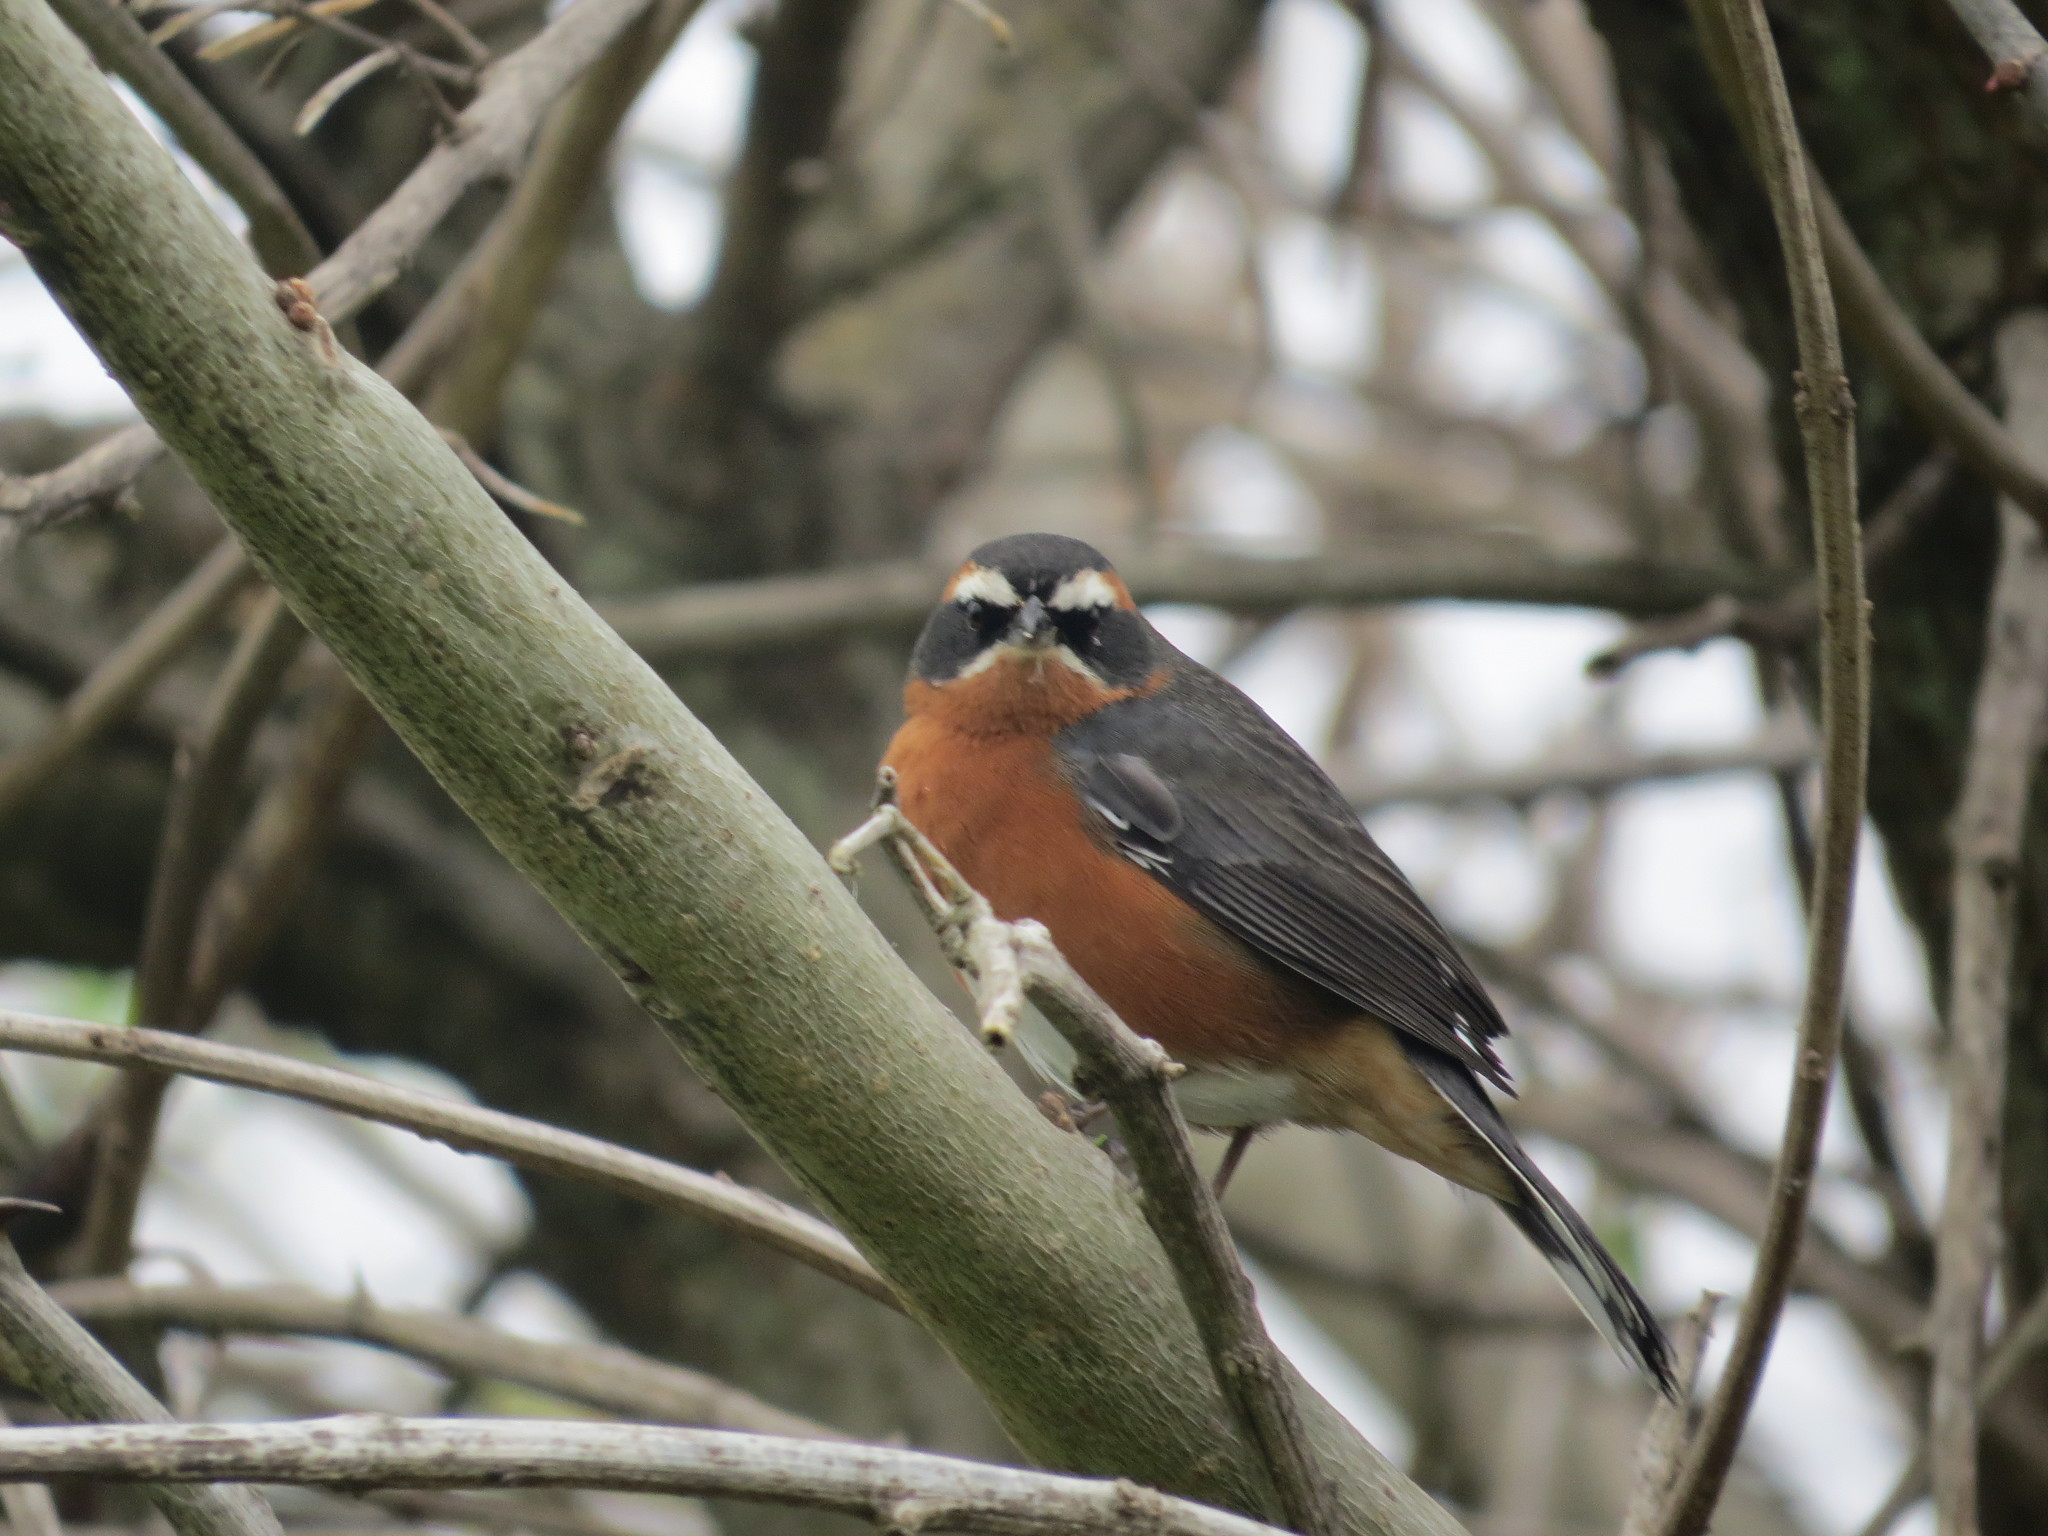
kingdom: Animalia
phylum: Chordata
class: Aves
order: Passeriformes
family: Thraupidae
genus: Poospiza
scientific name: Poospiza nigrorufa
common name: Black-and-rufous warbling finch
